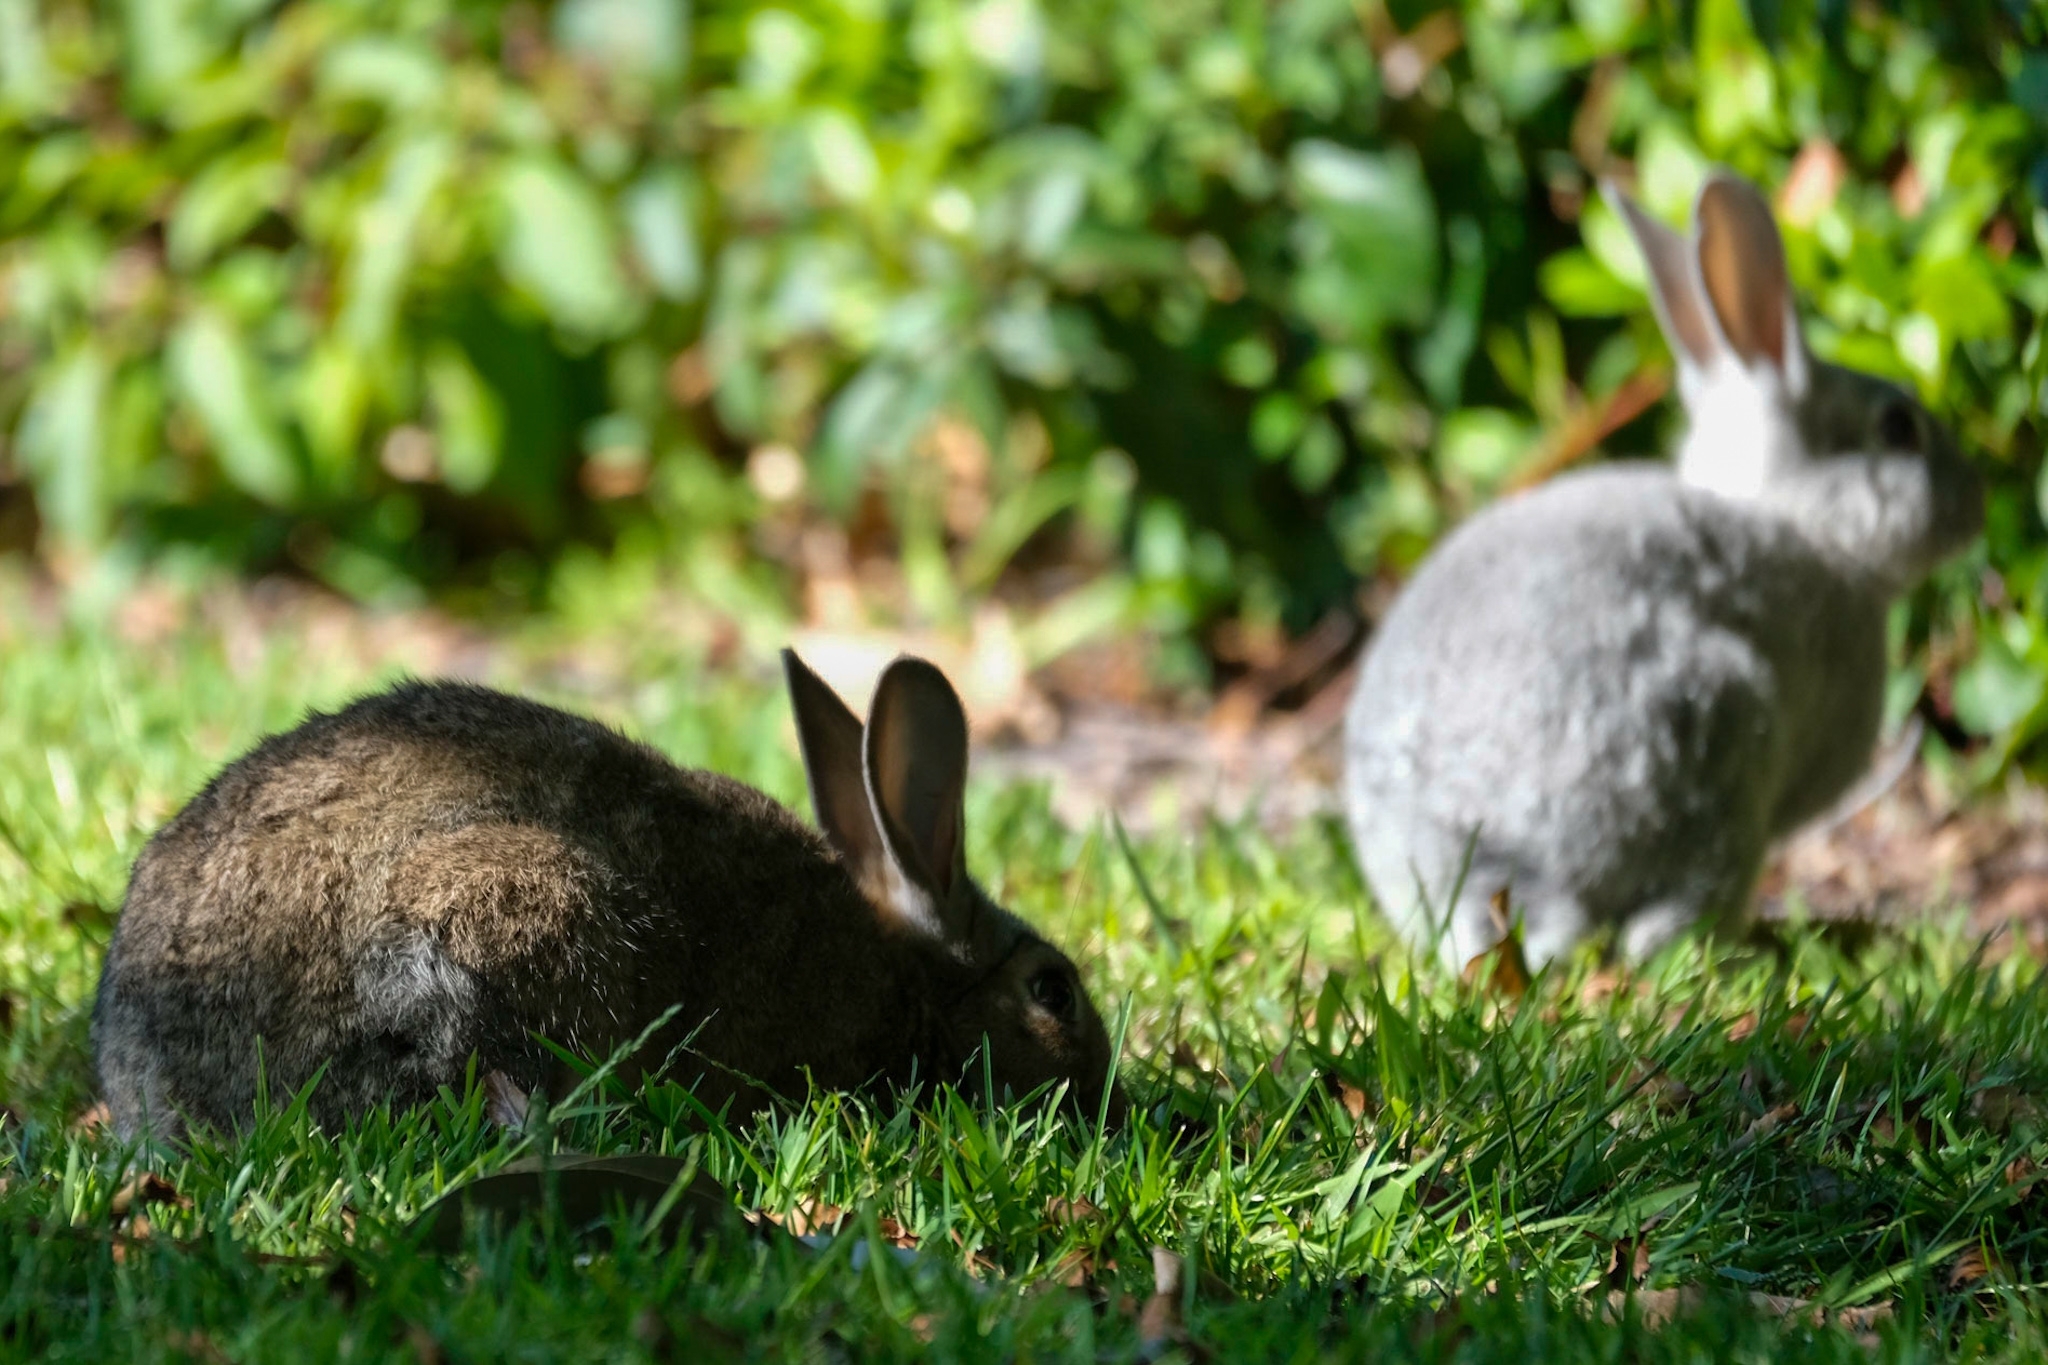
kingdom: Animalia
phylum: Chordata
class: Mammalia
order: Lagomorpha
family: Leporidae
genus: Oryctolagus
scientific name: Oryctolagus cuniculus
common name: European rabbit
